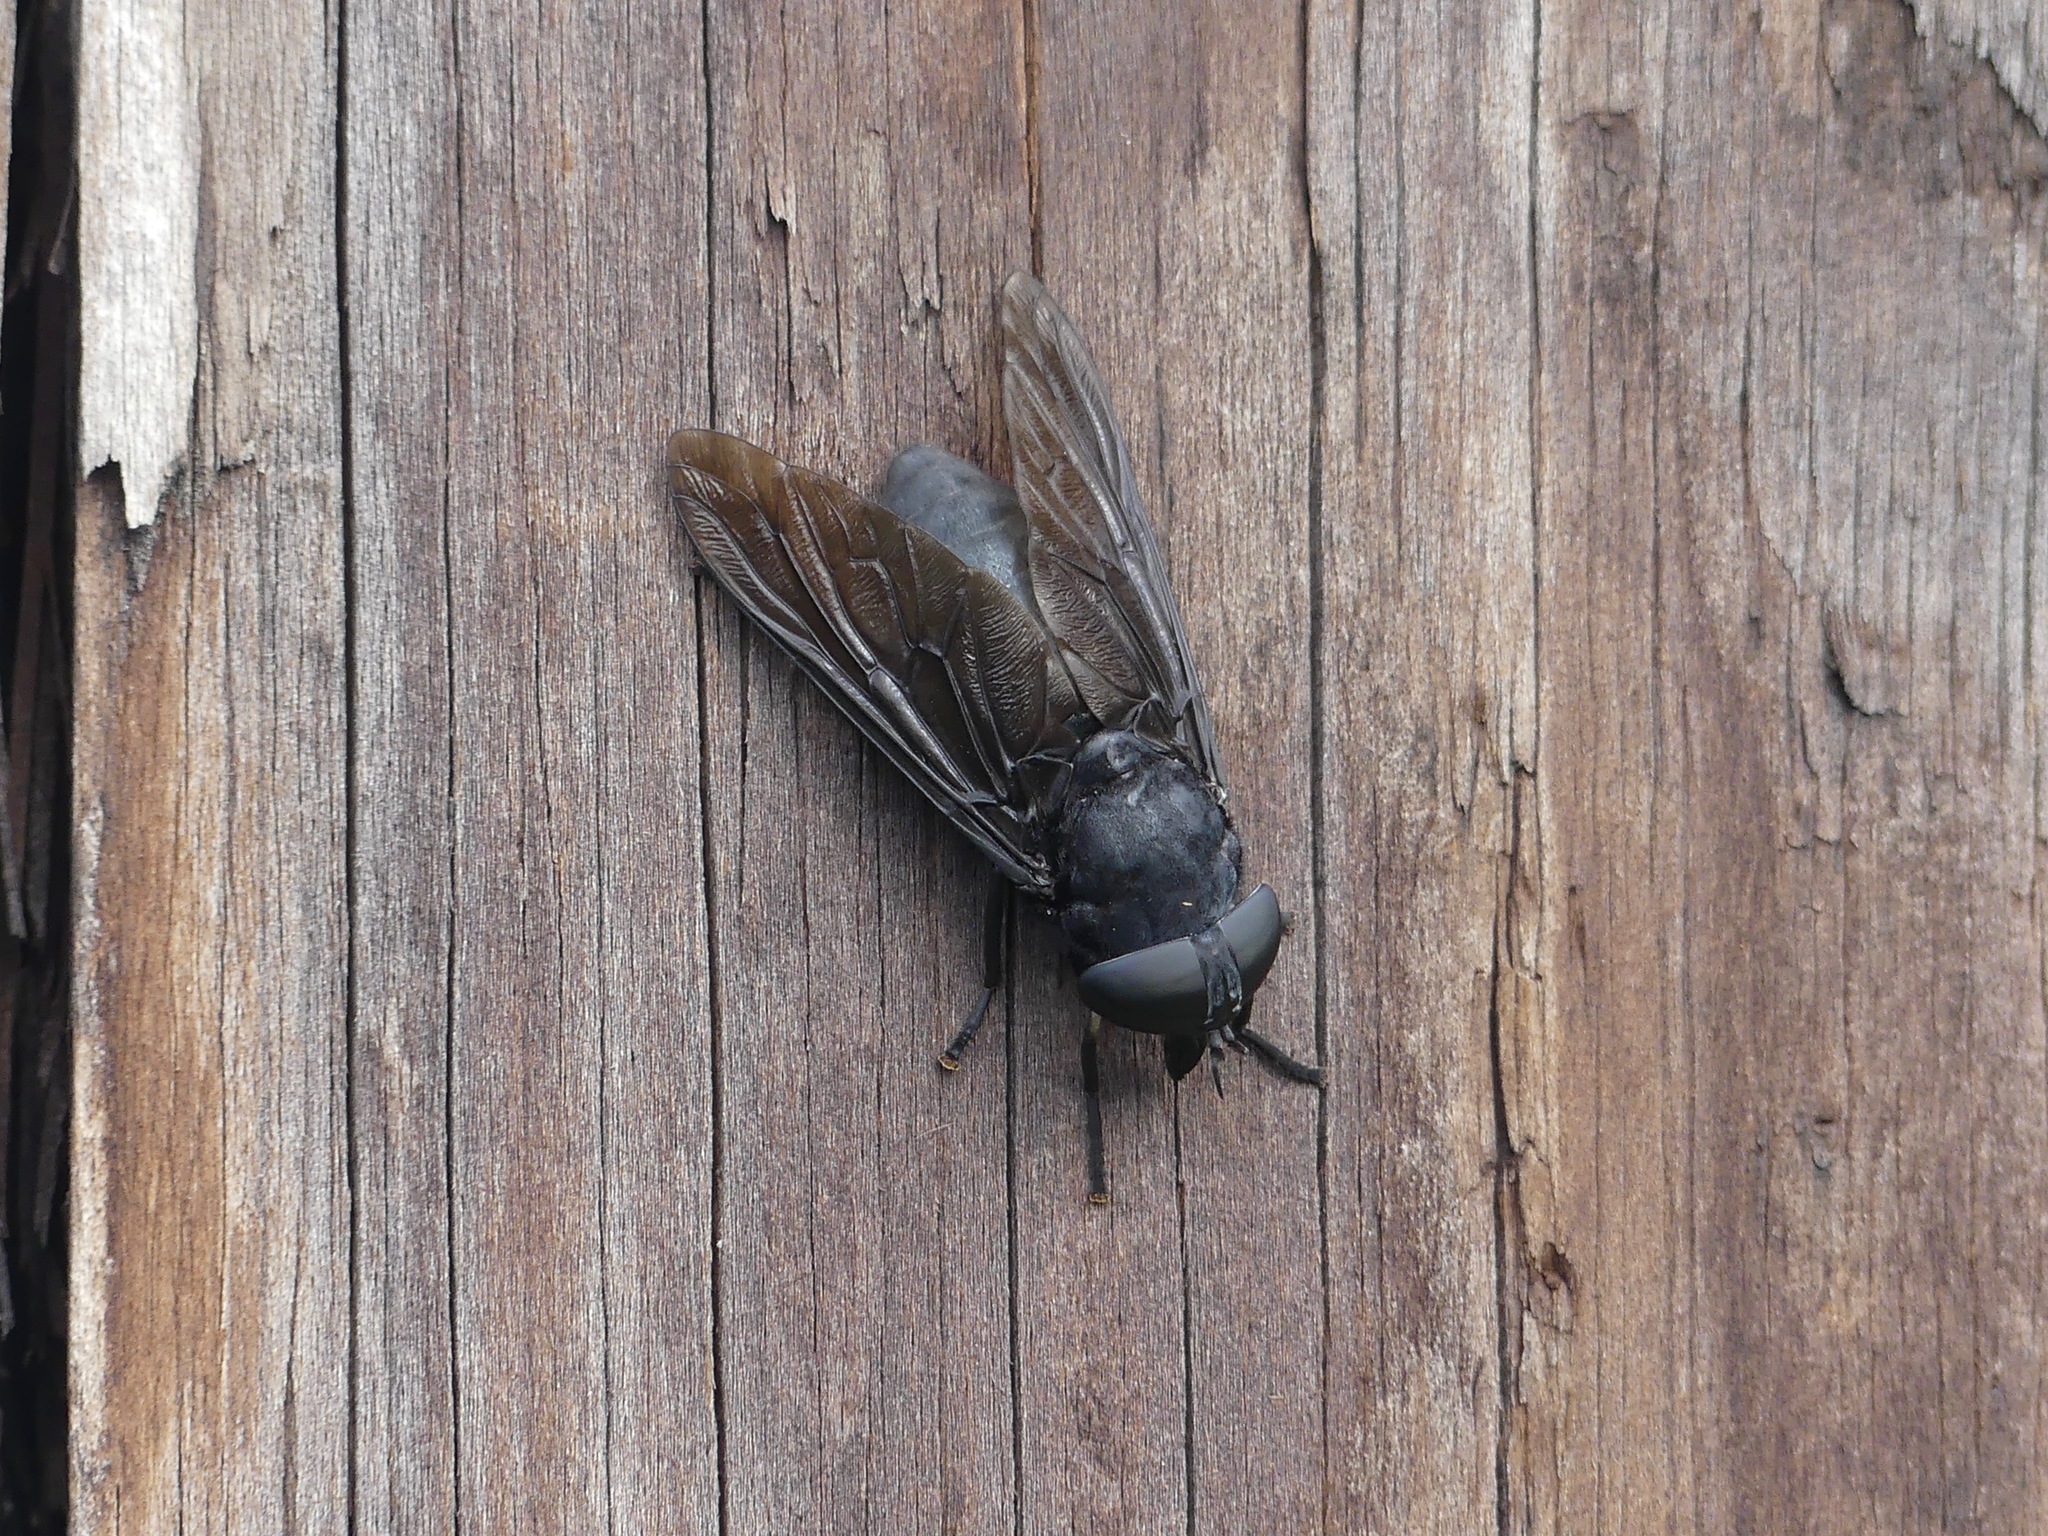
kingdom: Animalia
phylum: Arthropoda
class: Insecta
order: Diptera
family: Tabanidae
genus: Tabanus
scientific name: Tabanus atratus
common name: Black horse fly
